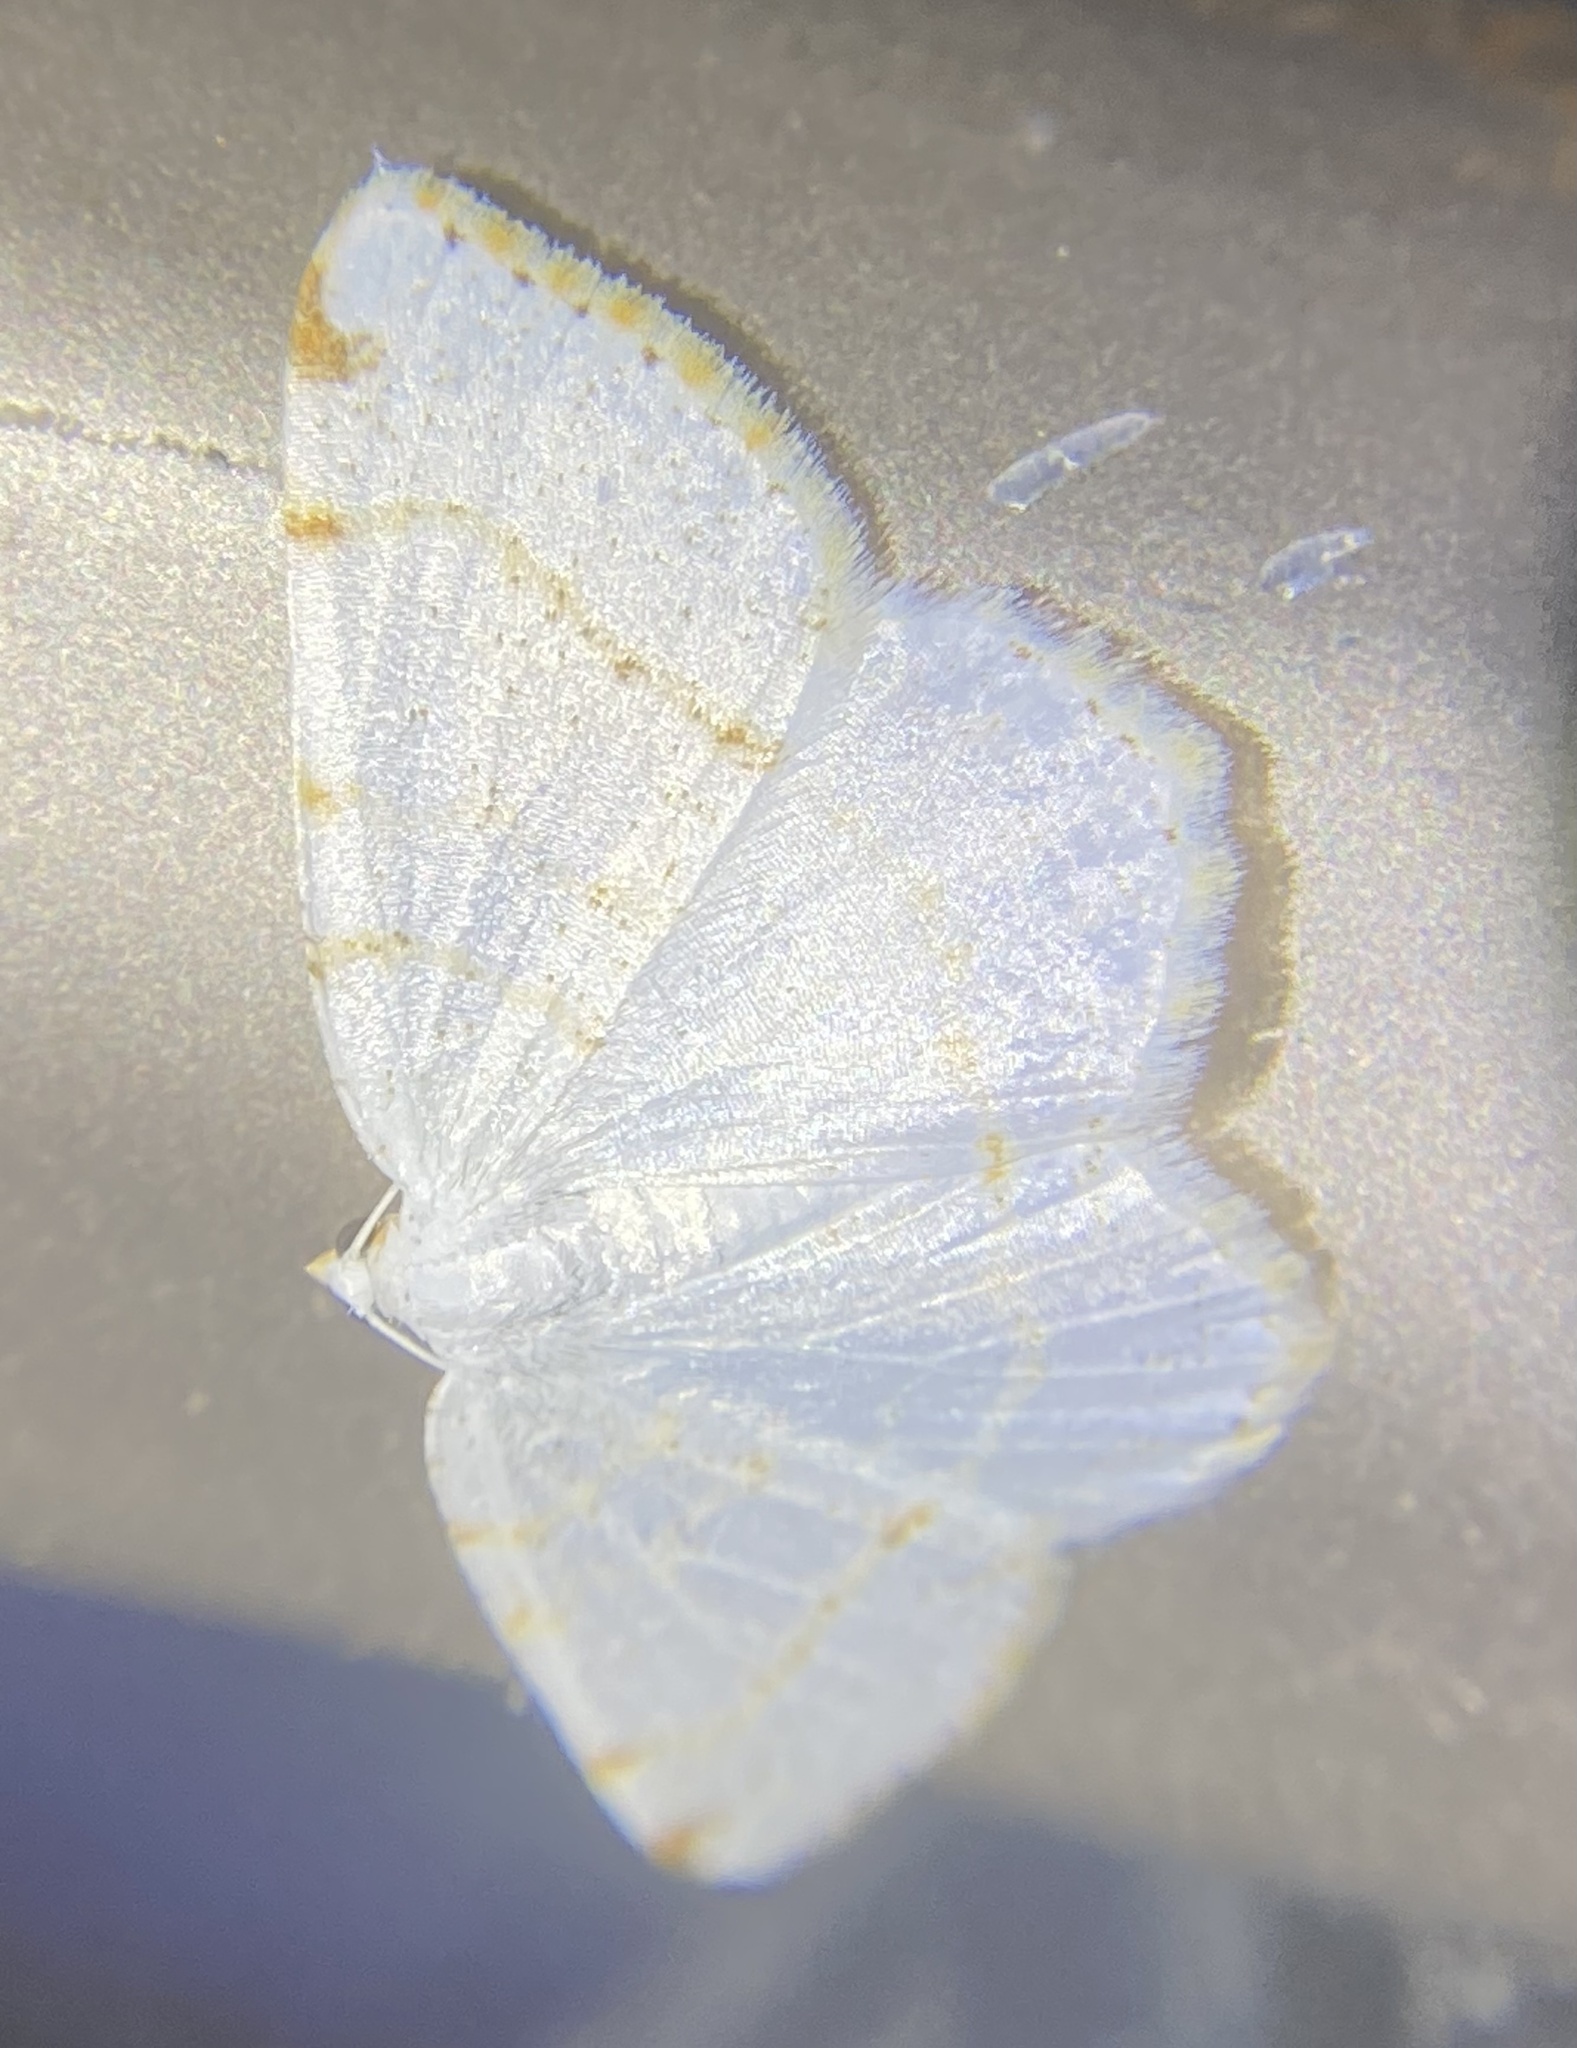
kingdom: Animalia
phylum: Arthropoda
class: Insecta
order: Lepidoptera
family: Geometridae
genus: Macaria
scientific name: Macaria pustularia
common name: Lesser maple spanworm moth
